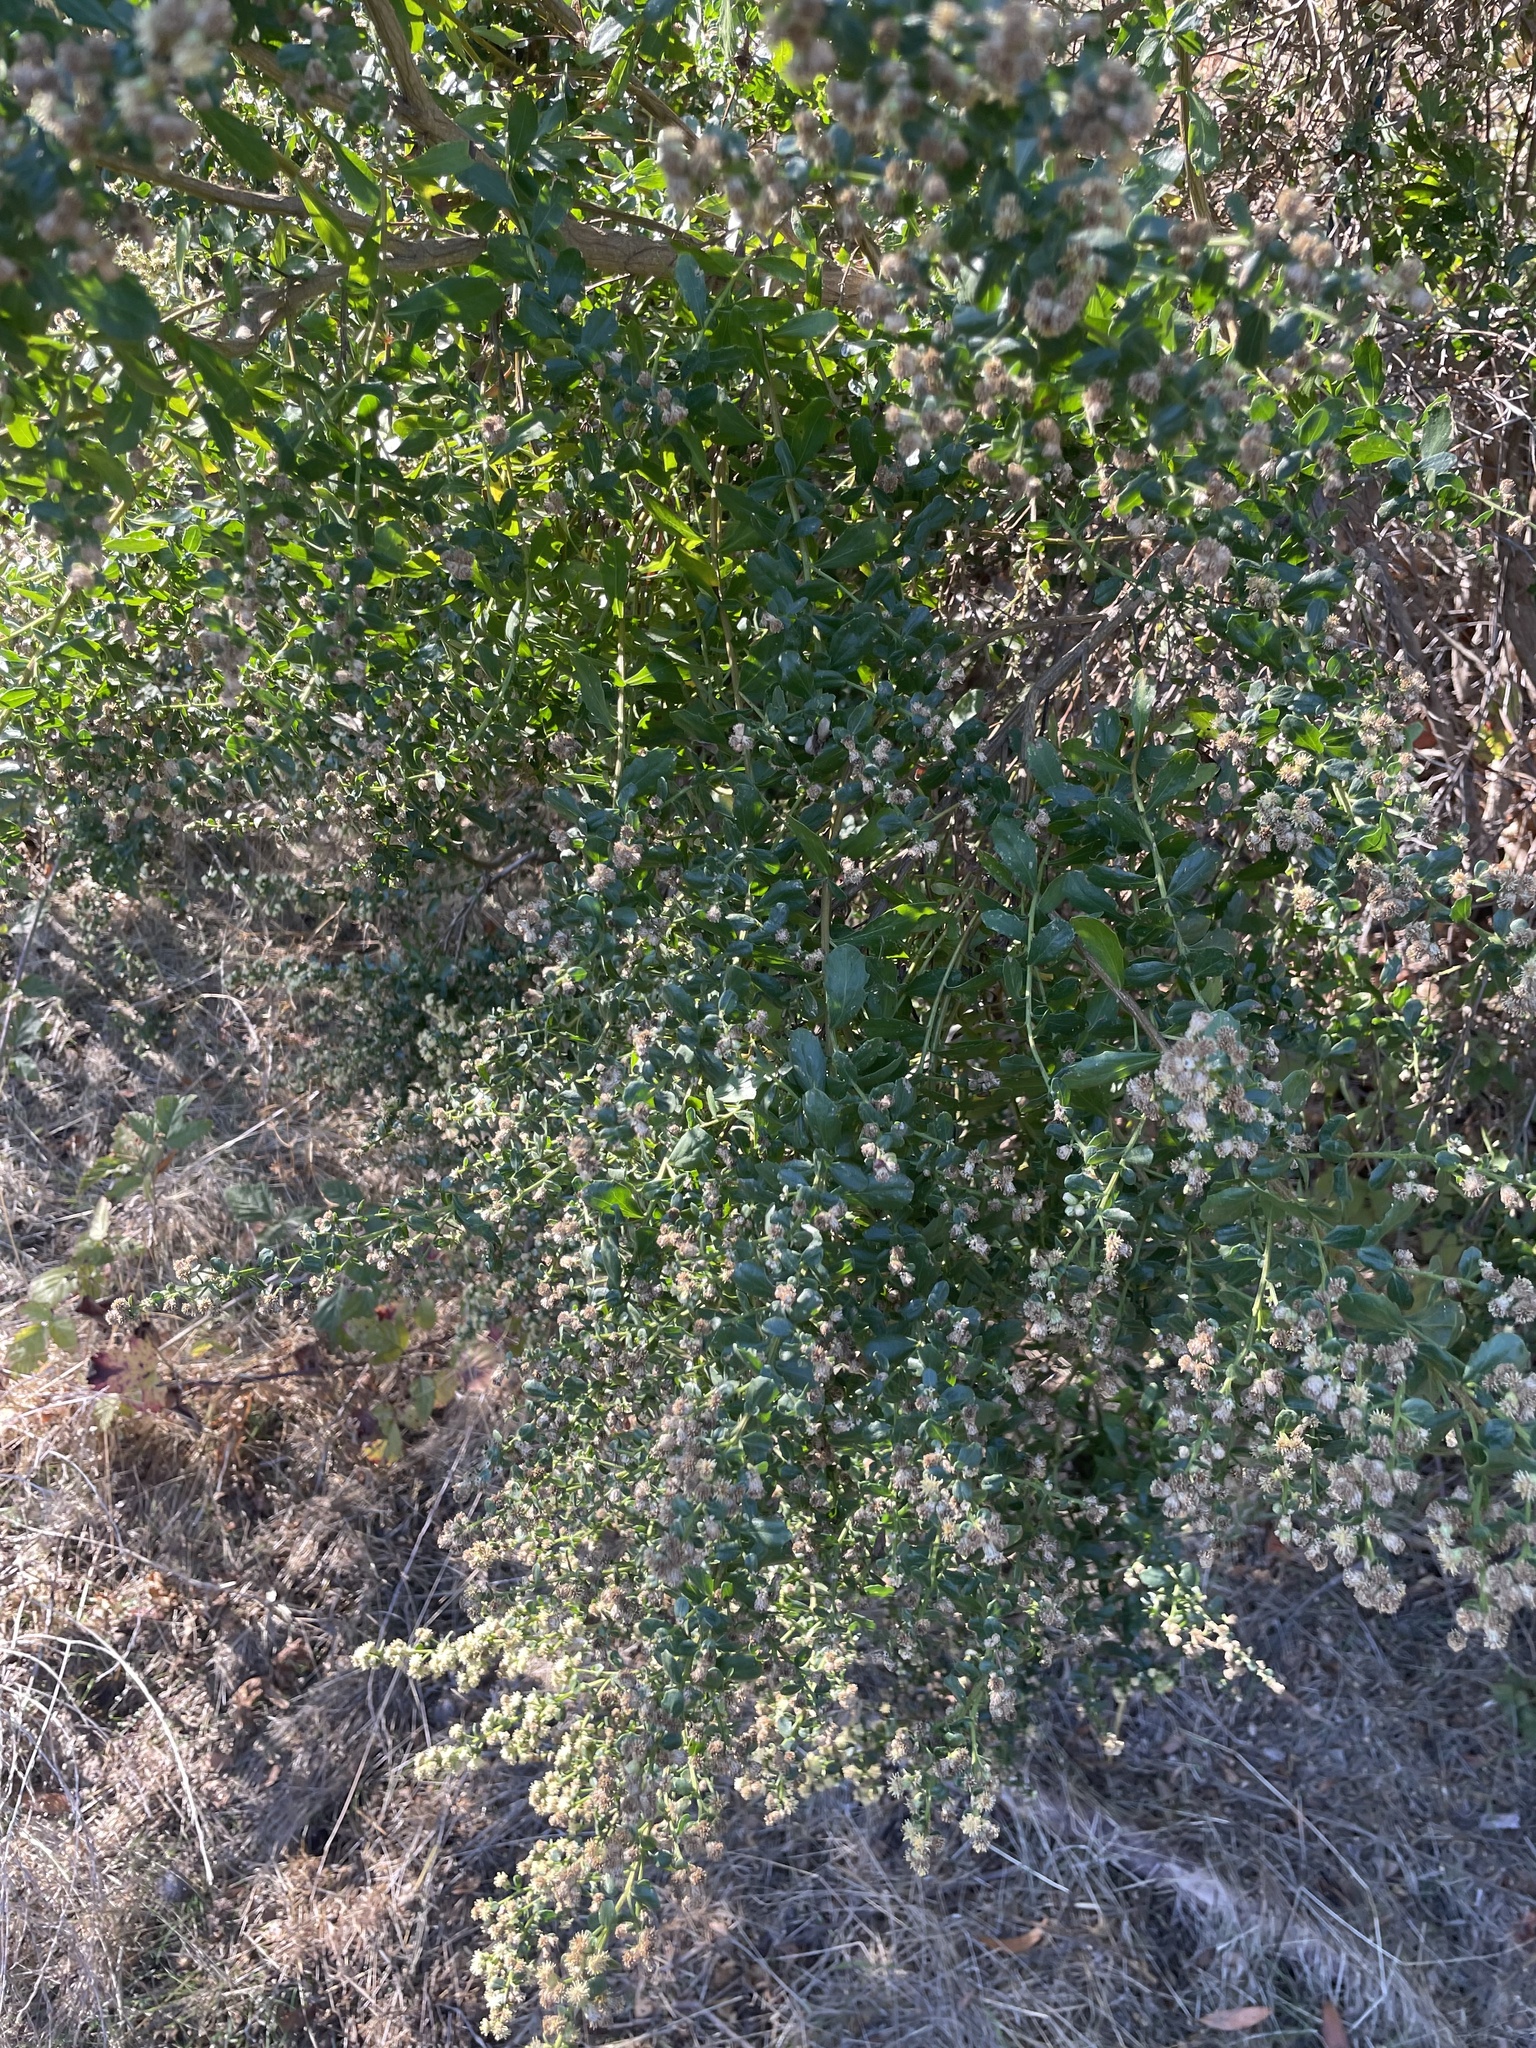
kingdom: Plantae
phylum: Tracheophyta
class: Magnoliopsida
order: Asterales
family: Asteraceae
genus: Baccharis
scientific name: Baccharis pilularis
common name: Coyotebrush
